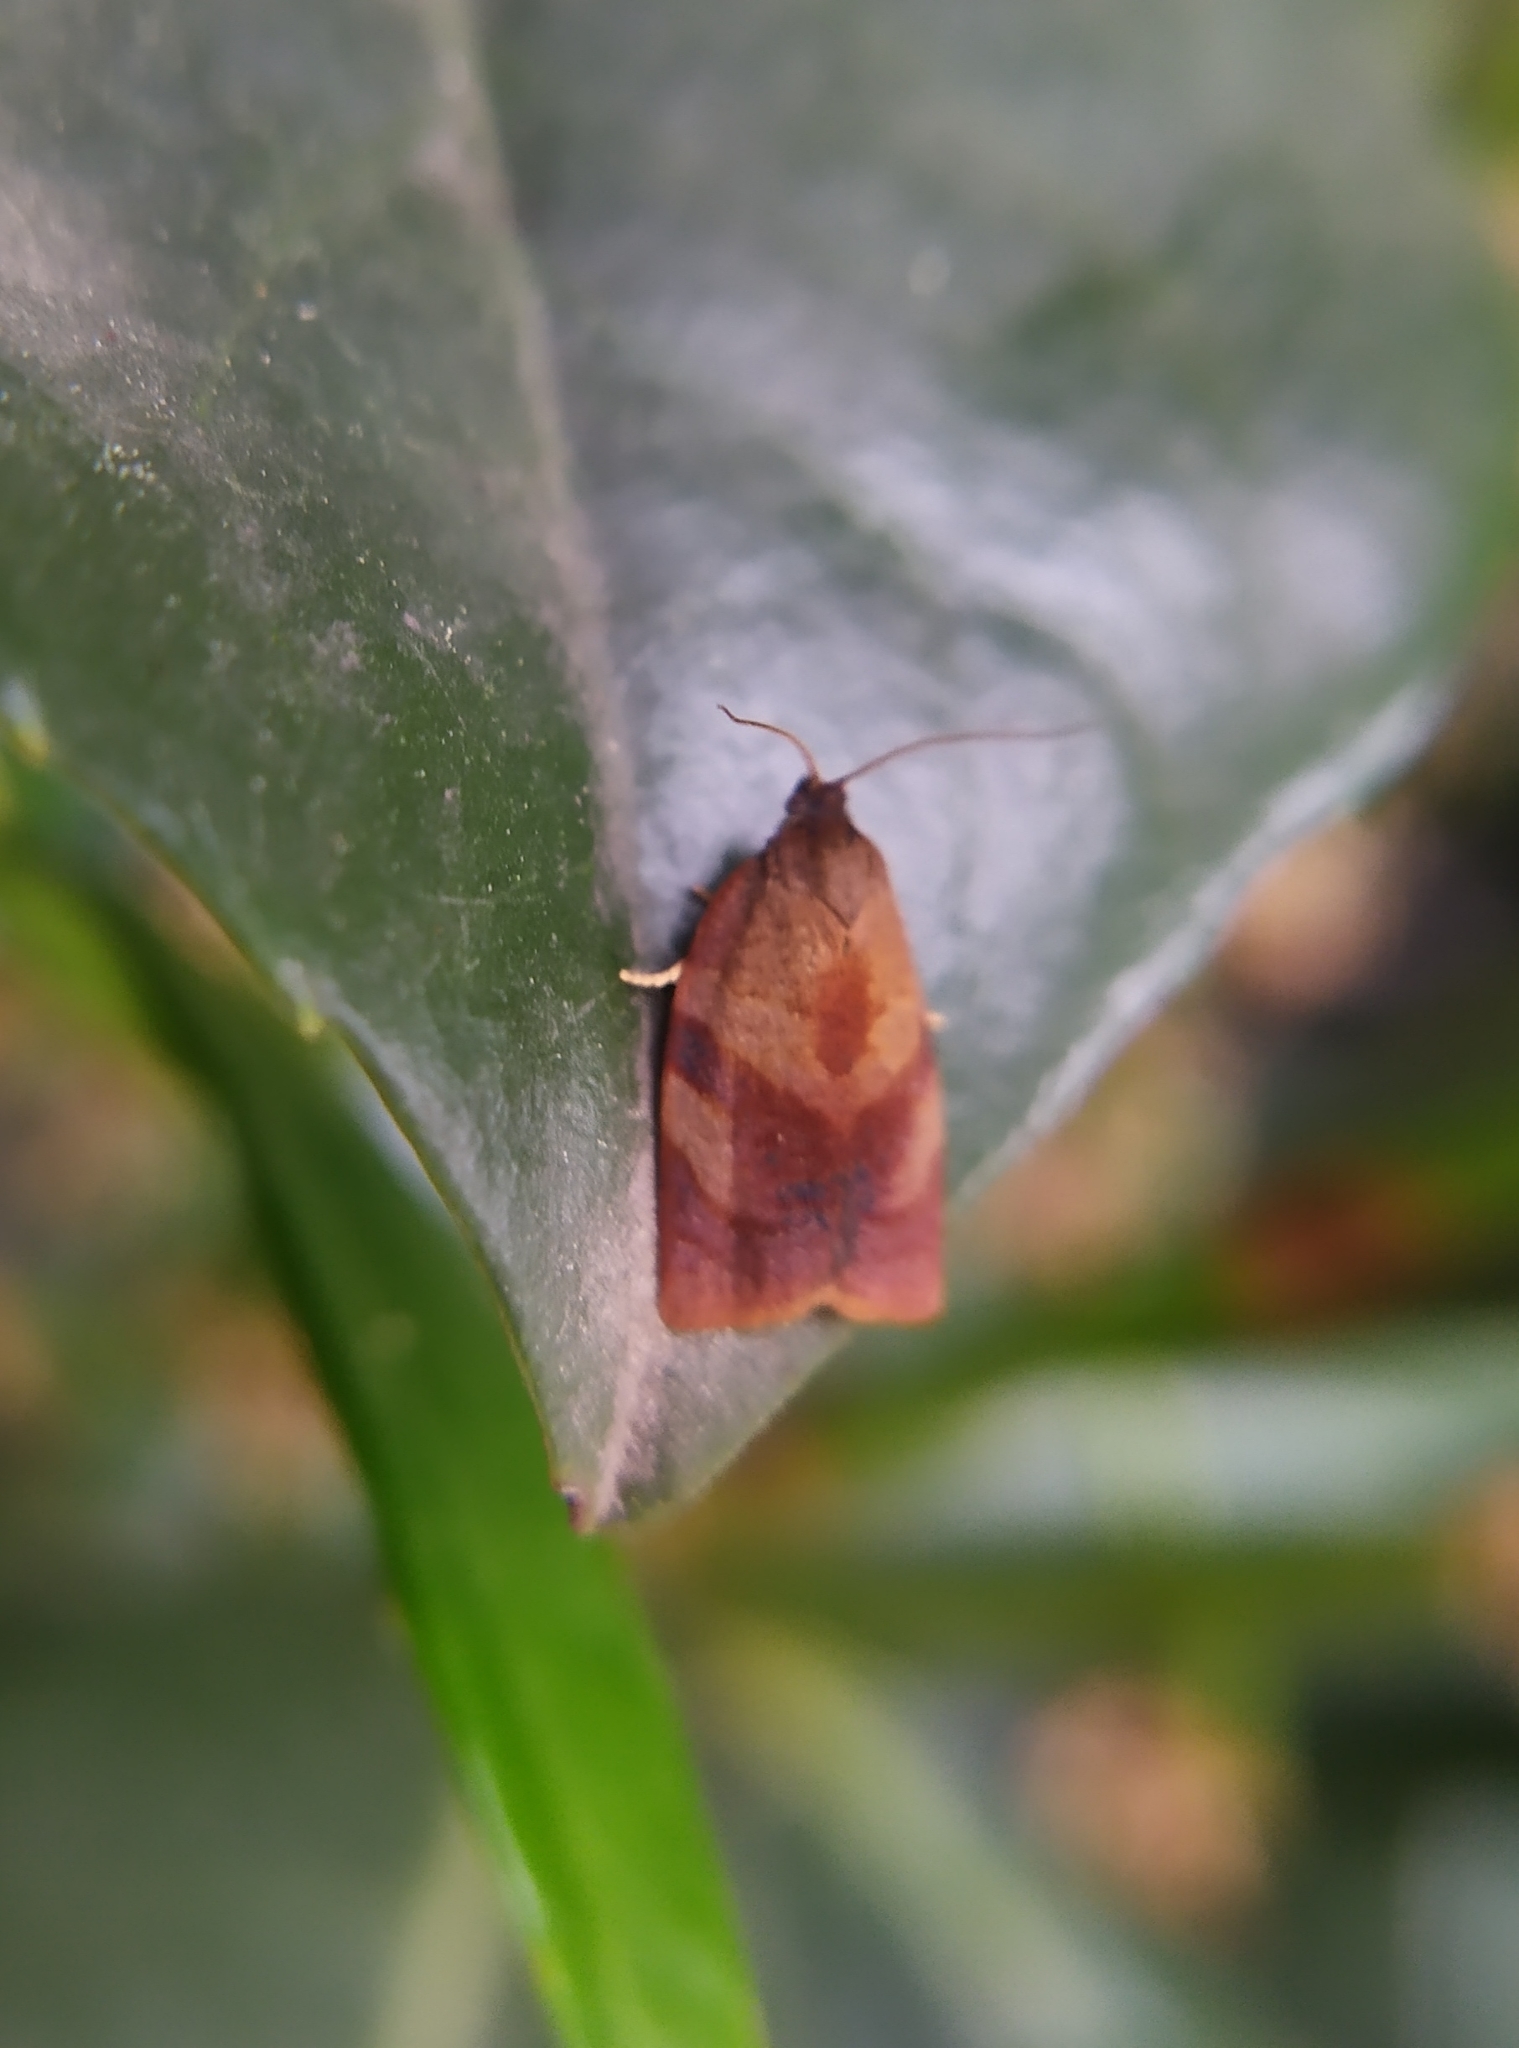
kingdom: Animalia
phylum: Arthropoda
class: Insecta
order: Lepidoptera
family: Tortricidae
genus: Cacoecimorpha
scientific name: Cacoecimorpha pronubana
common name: Carnation tortrix
